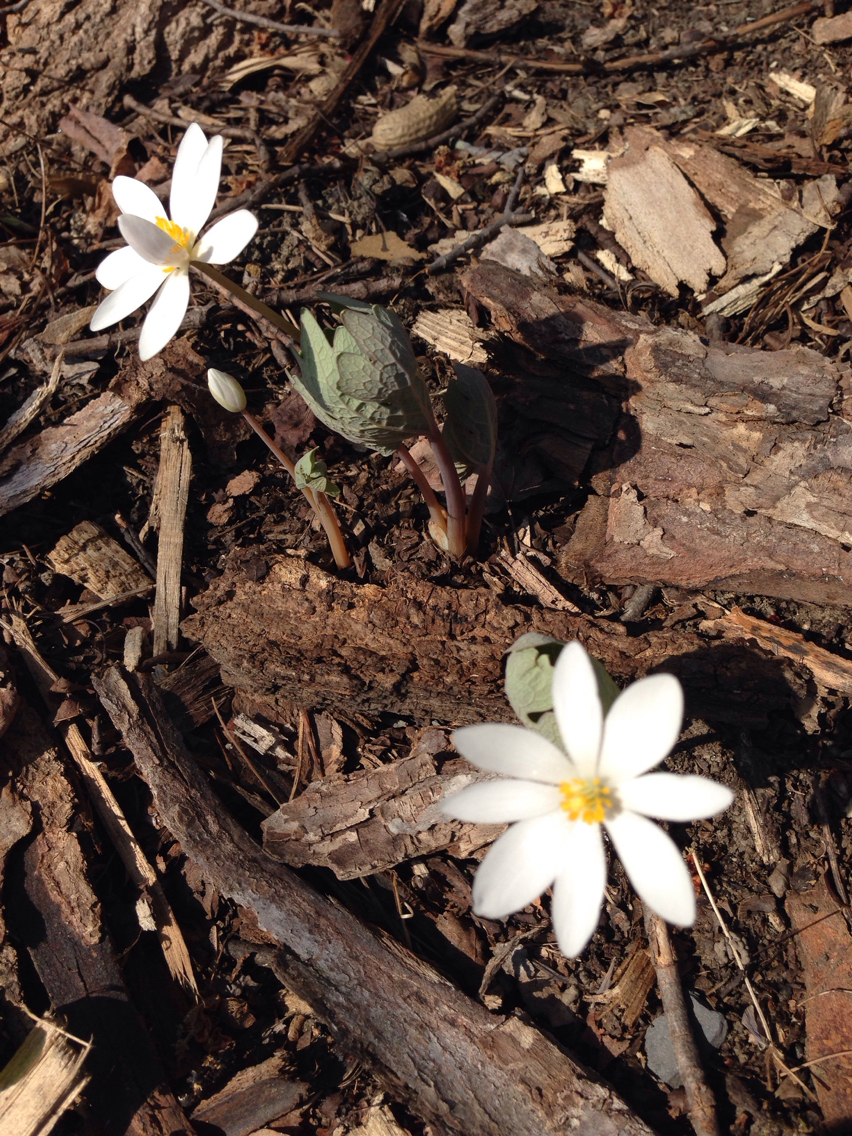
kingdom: Plantae
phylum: Tracheophyta
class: Magnoliopsida
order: Ranunculales
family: Papaveraceae
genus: Sanguinaria
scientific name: Sanguinaria canadensis
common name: Bloodroot
